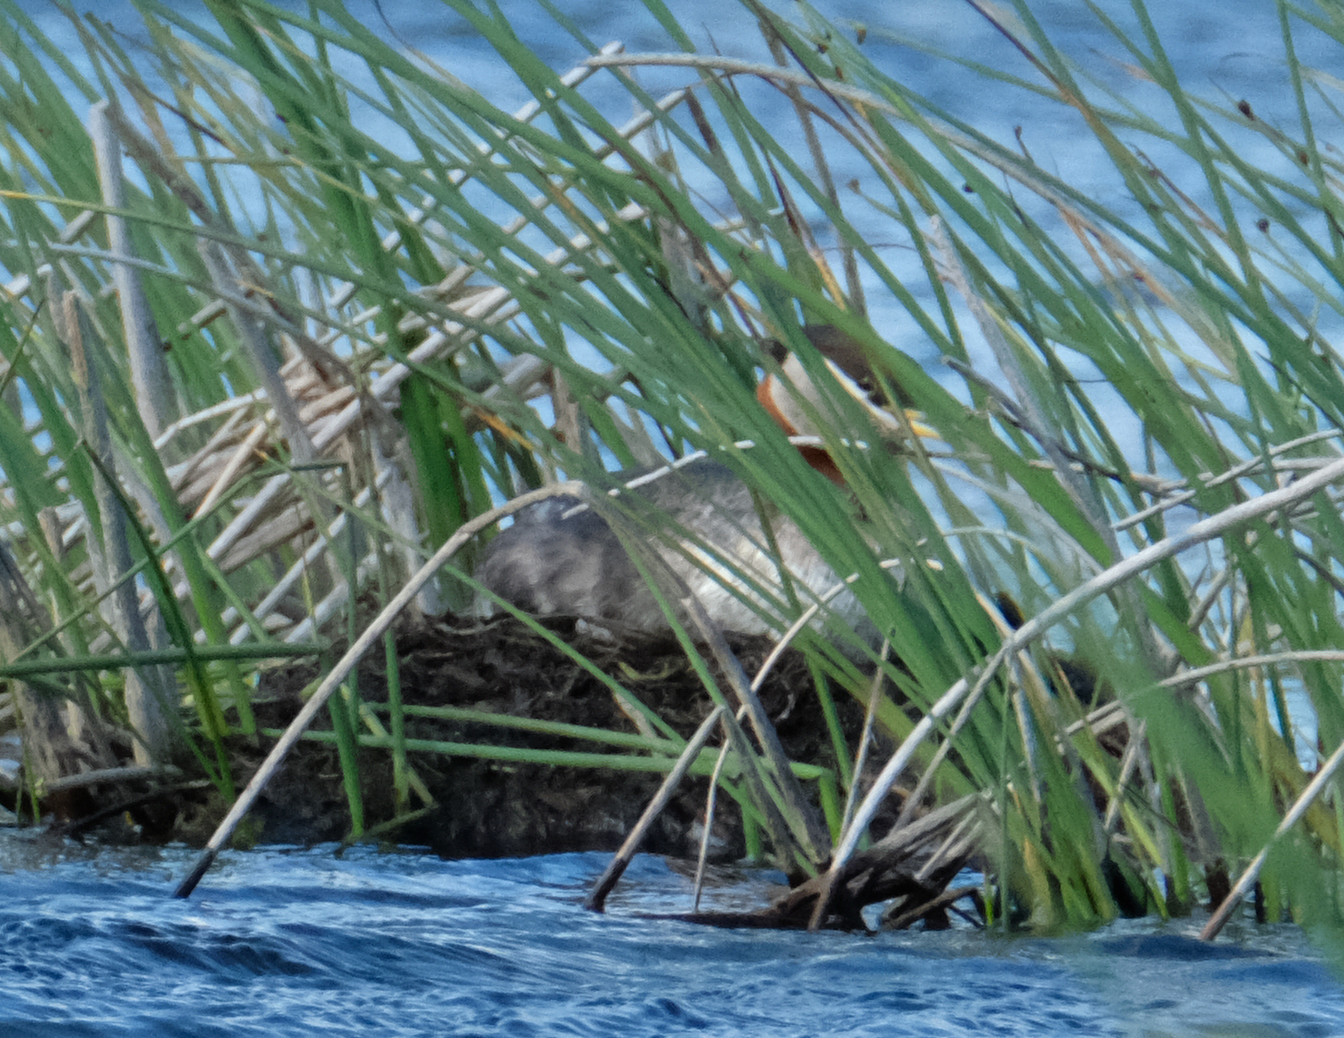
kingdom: Animalia
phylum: Chordata
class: Aves
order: Podicipediformes
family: Podicipedidae
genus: Podiceps
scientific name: Podiceps grisegena
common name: Red-necked grebe
